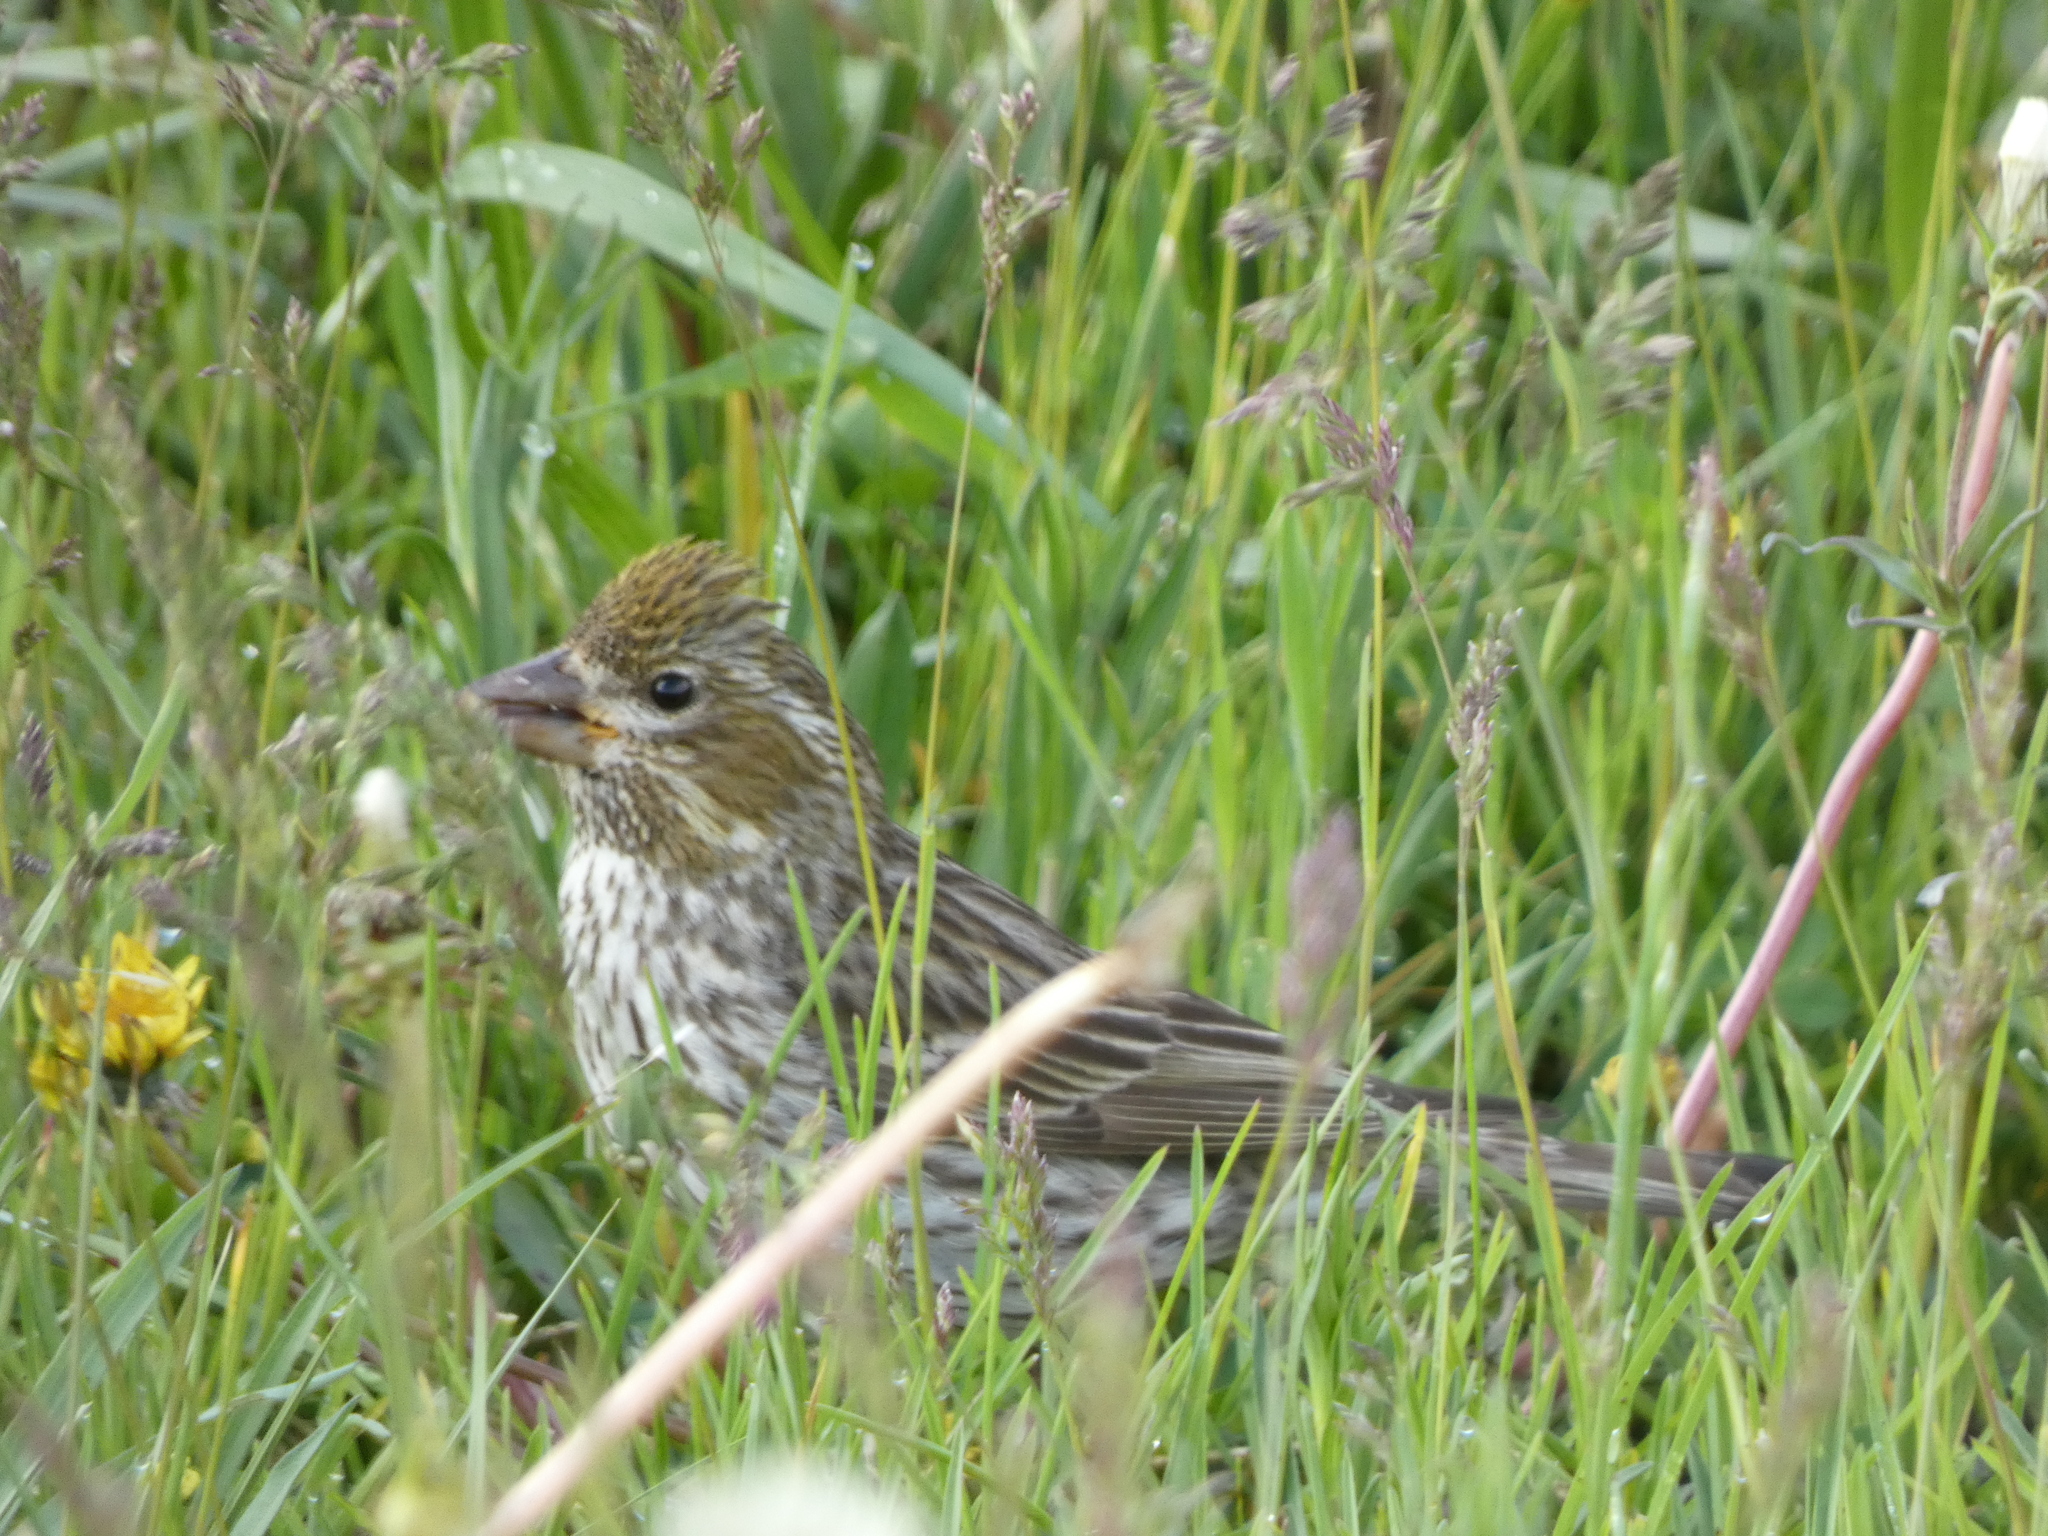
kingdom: Animalia
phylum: Chordata
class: Aves
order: Passeriformes
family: Fringillidae
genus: Haemorhous
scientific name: Haemorhous cassinii
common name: Cassin's finch
